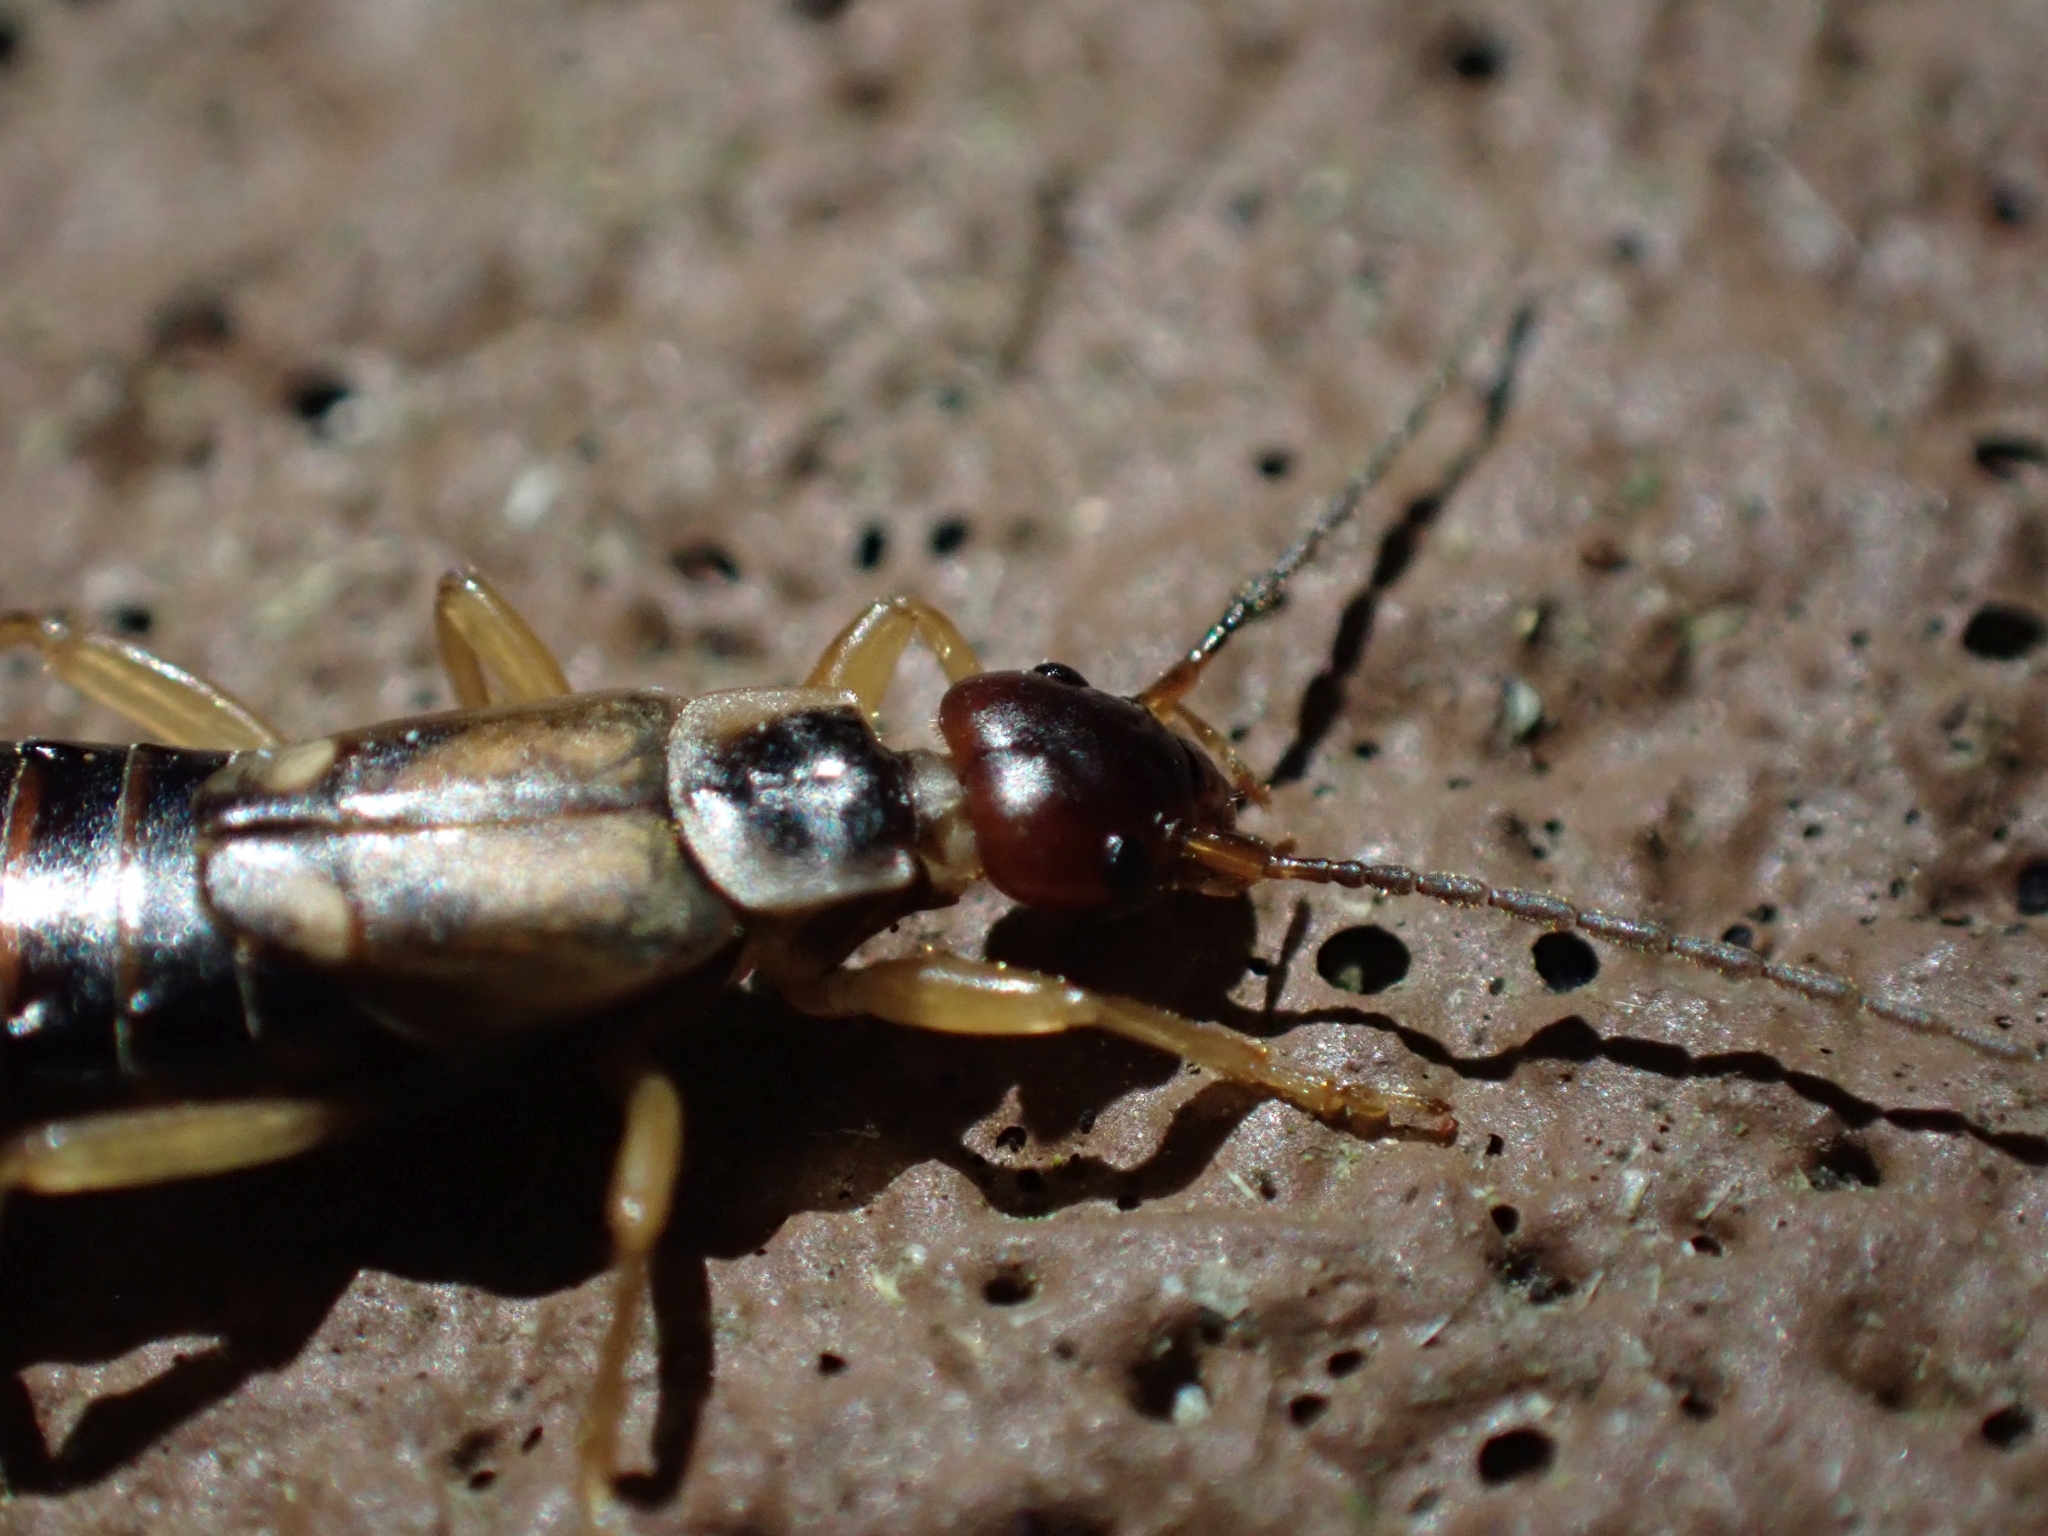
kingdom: Animalia
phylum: Arthropoda
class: Insecta
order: Dermaptera
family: Forficulidae
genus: Forficula
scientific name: Forficula
